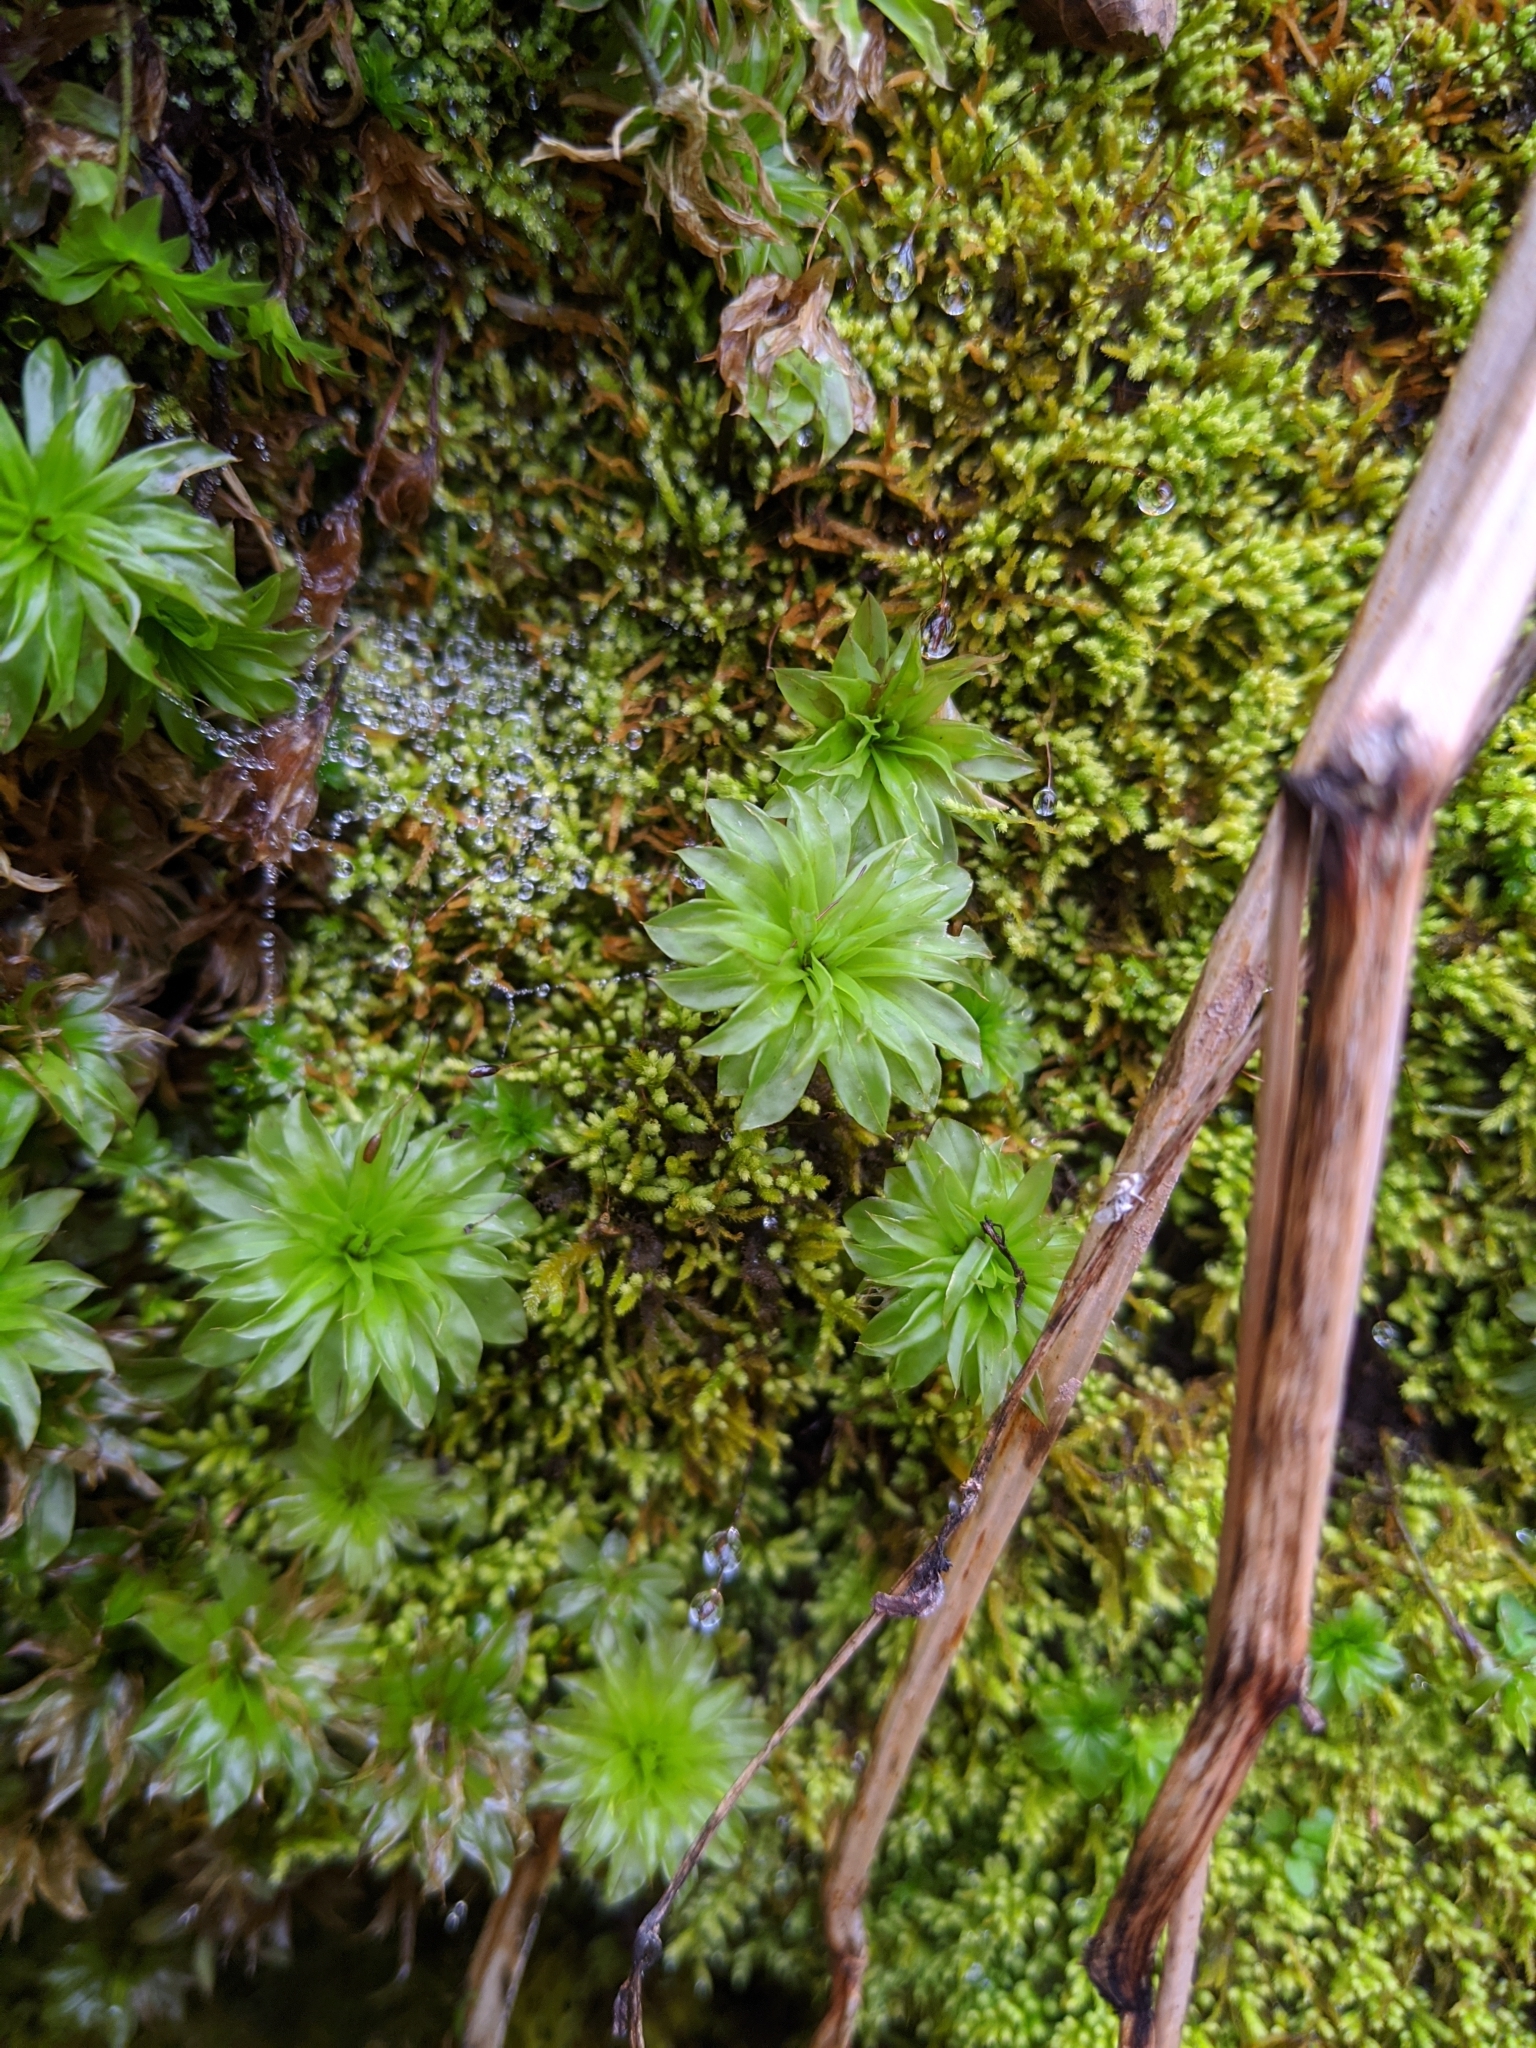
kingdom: Plantae
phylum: Bryophyta
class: Bryopsida
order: Bryales
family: Bryaceae
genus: Rhodobryum
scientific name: Rhodobryum ontariense
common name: Ontario rhodobryum moss
